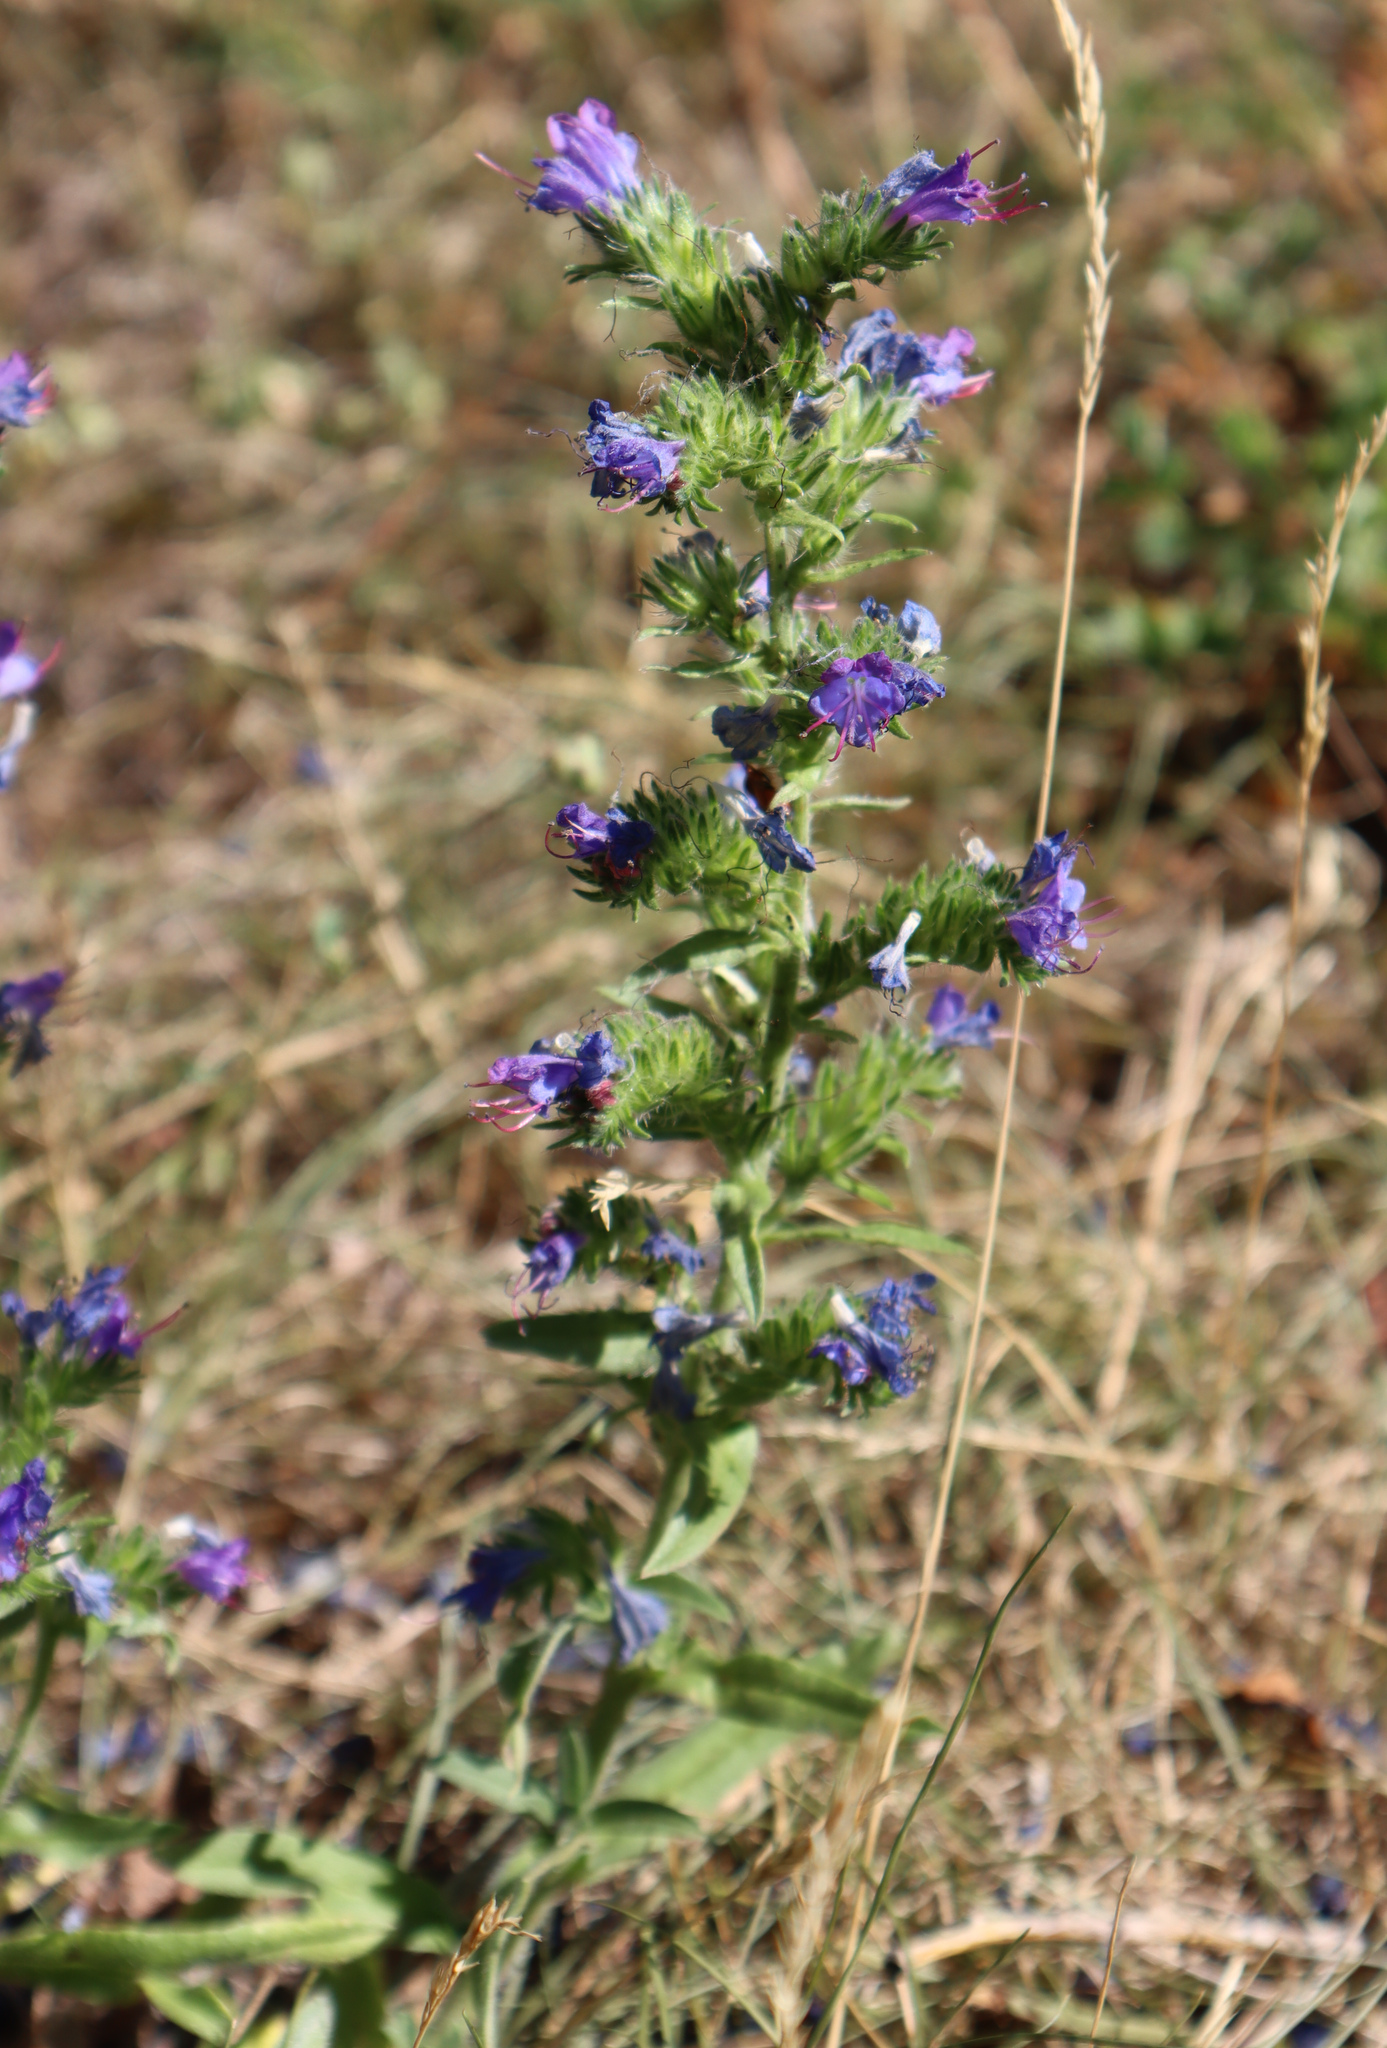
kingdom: Plantae
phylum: Tracheophyta
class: Magnoliopsida
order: Boraginales
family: Boraginaceae
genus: Echium
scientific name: Echium vulgare
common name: Common viper's bugloss
